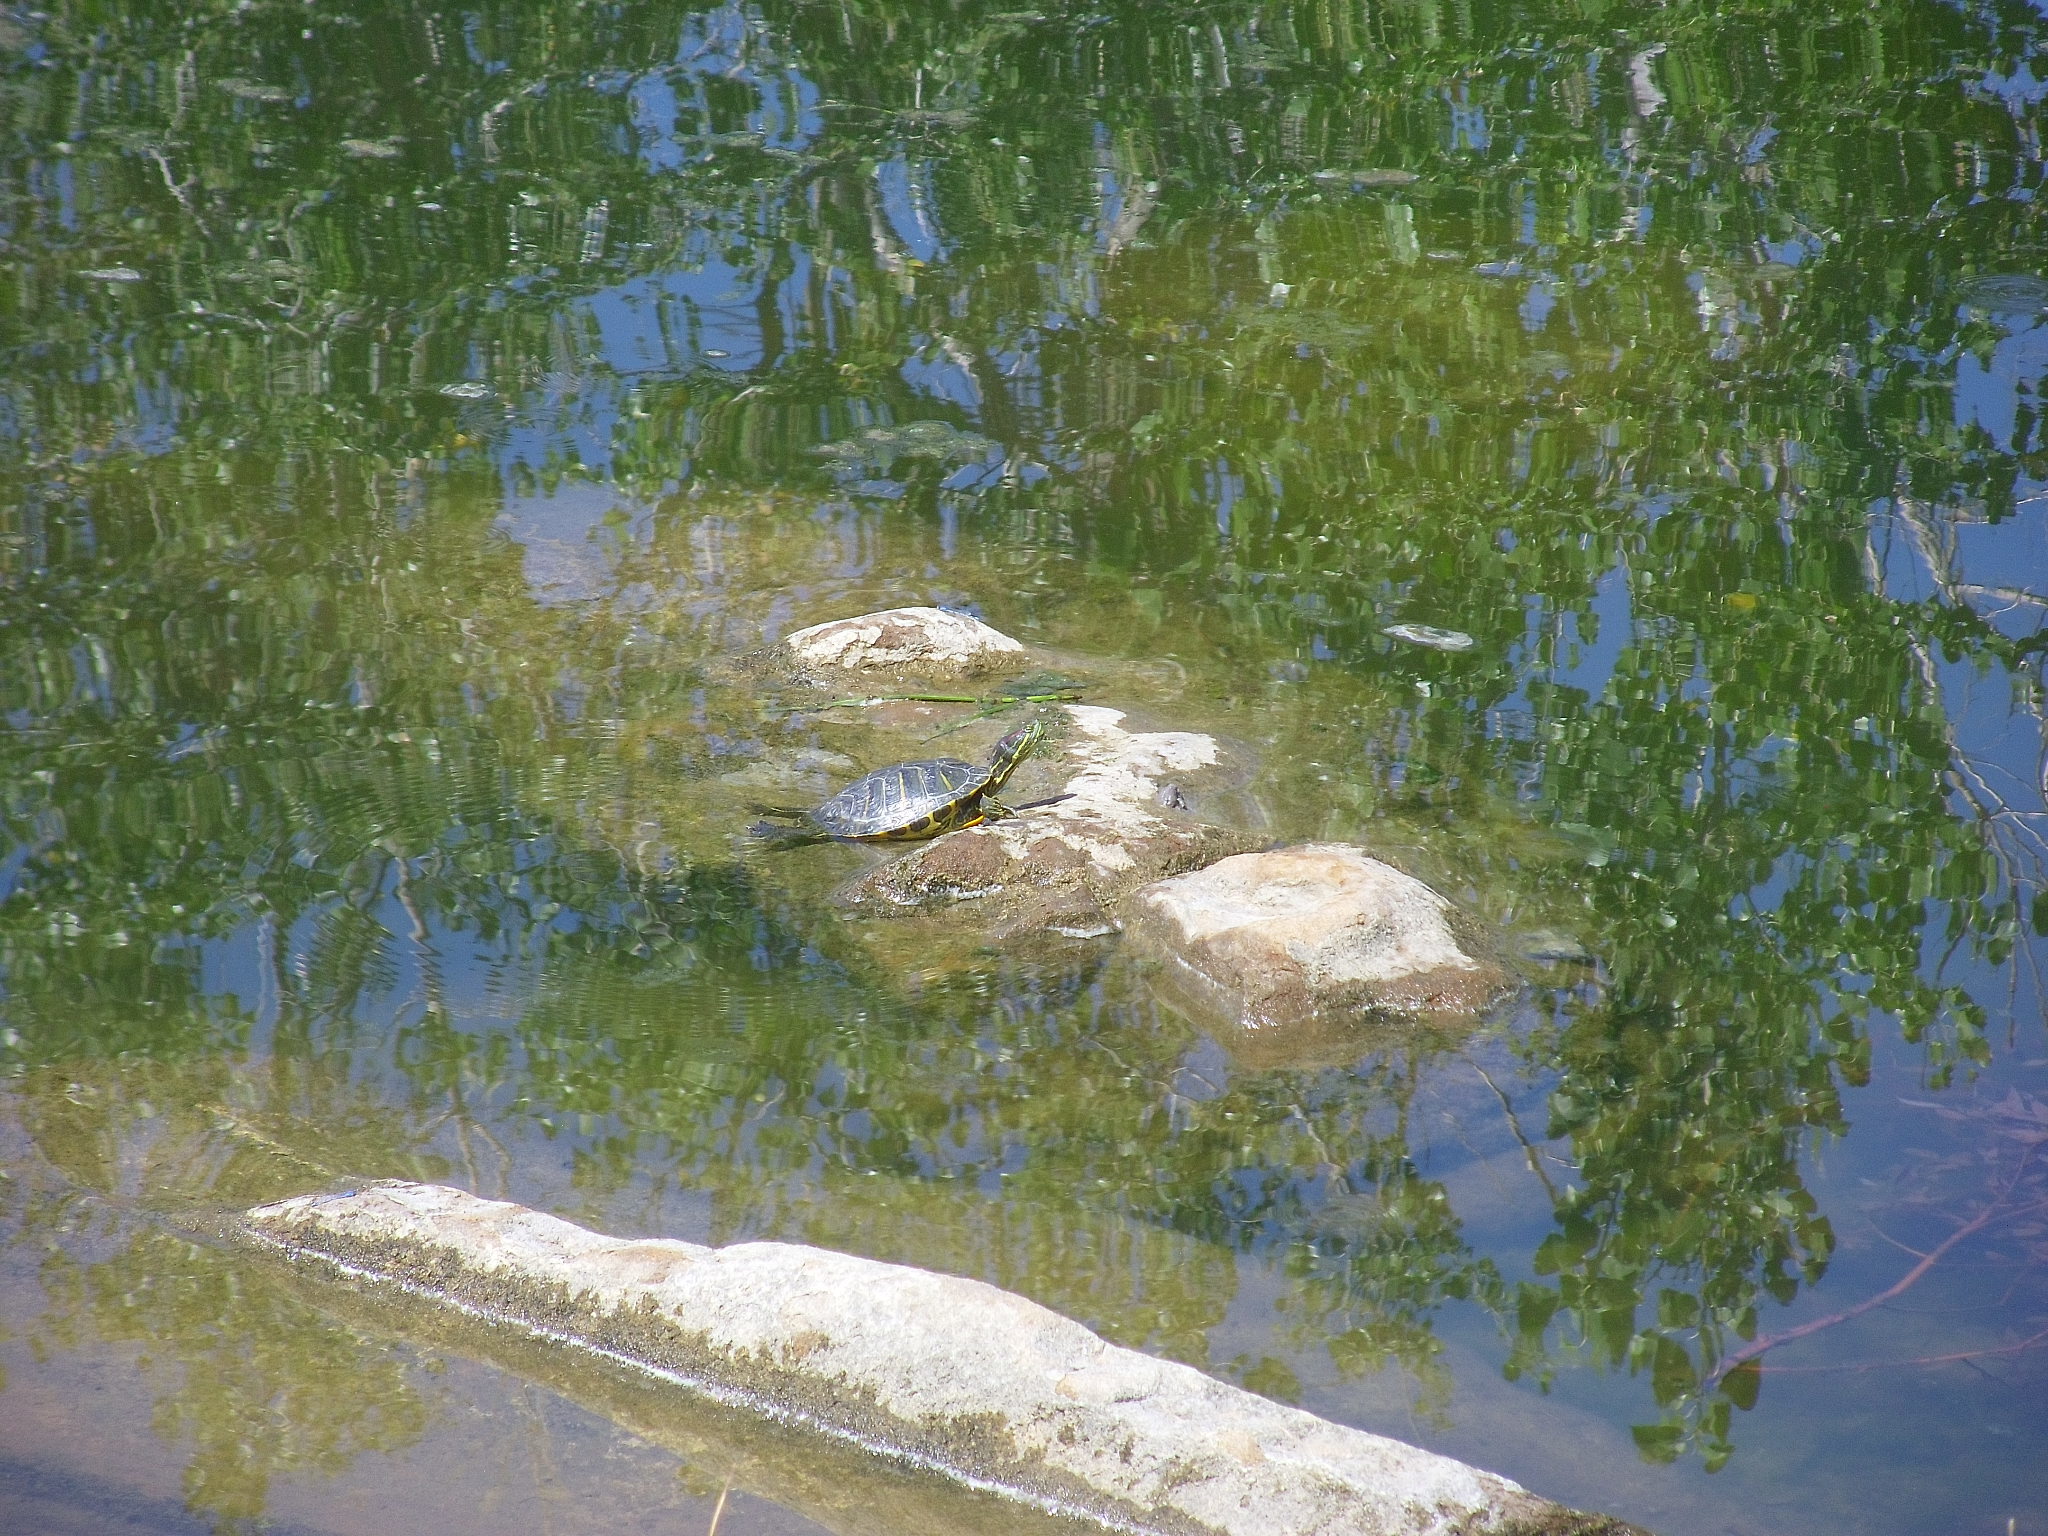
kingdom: Animalia
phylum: Chordata
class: Testudines
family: Emydidae
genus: Trachemys
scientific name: Trachemys scripta
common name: Slider
